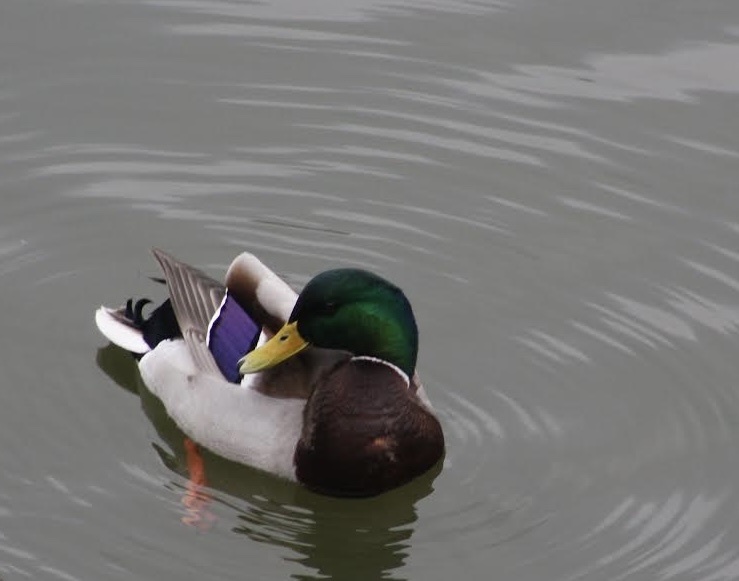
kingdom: Animalia
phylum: Chordata
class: Aves
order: Anseriformes
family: Anatidae
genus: Anas
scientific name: Anas platyrhynchos
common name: Mallard
